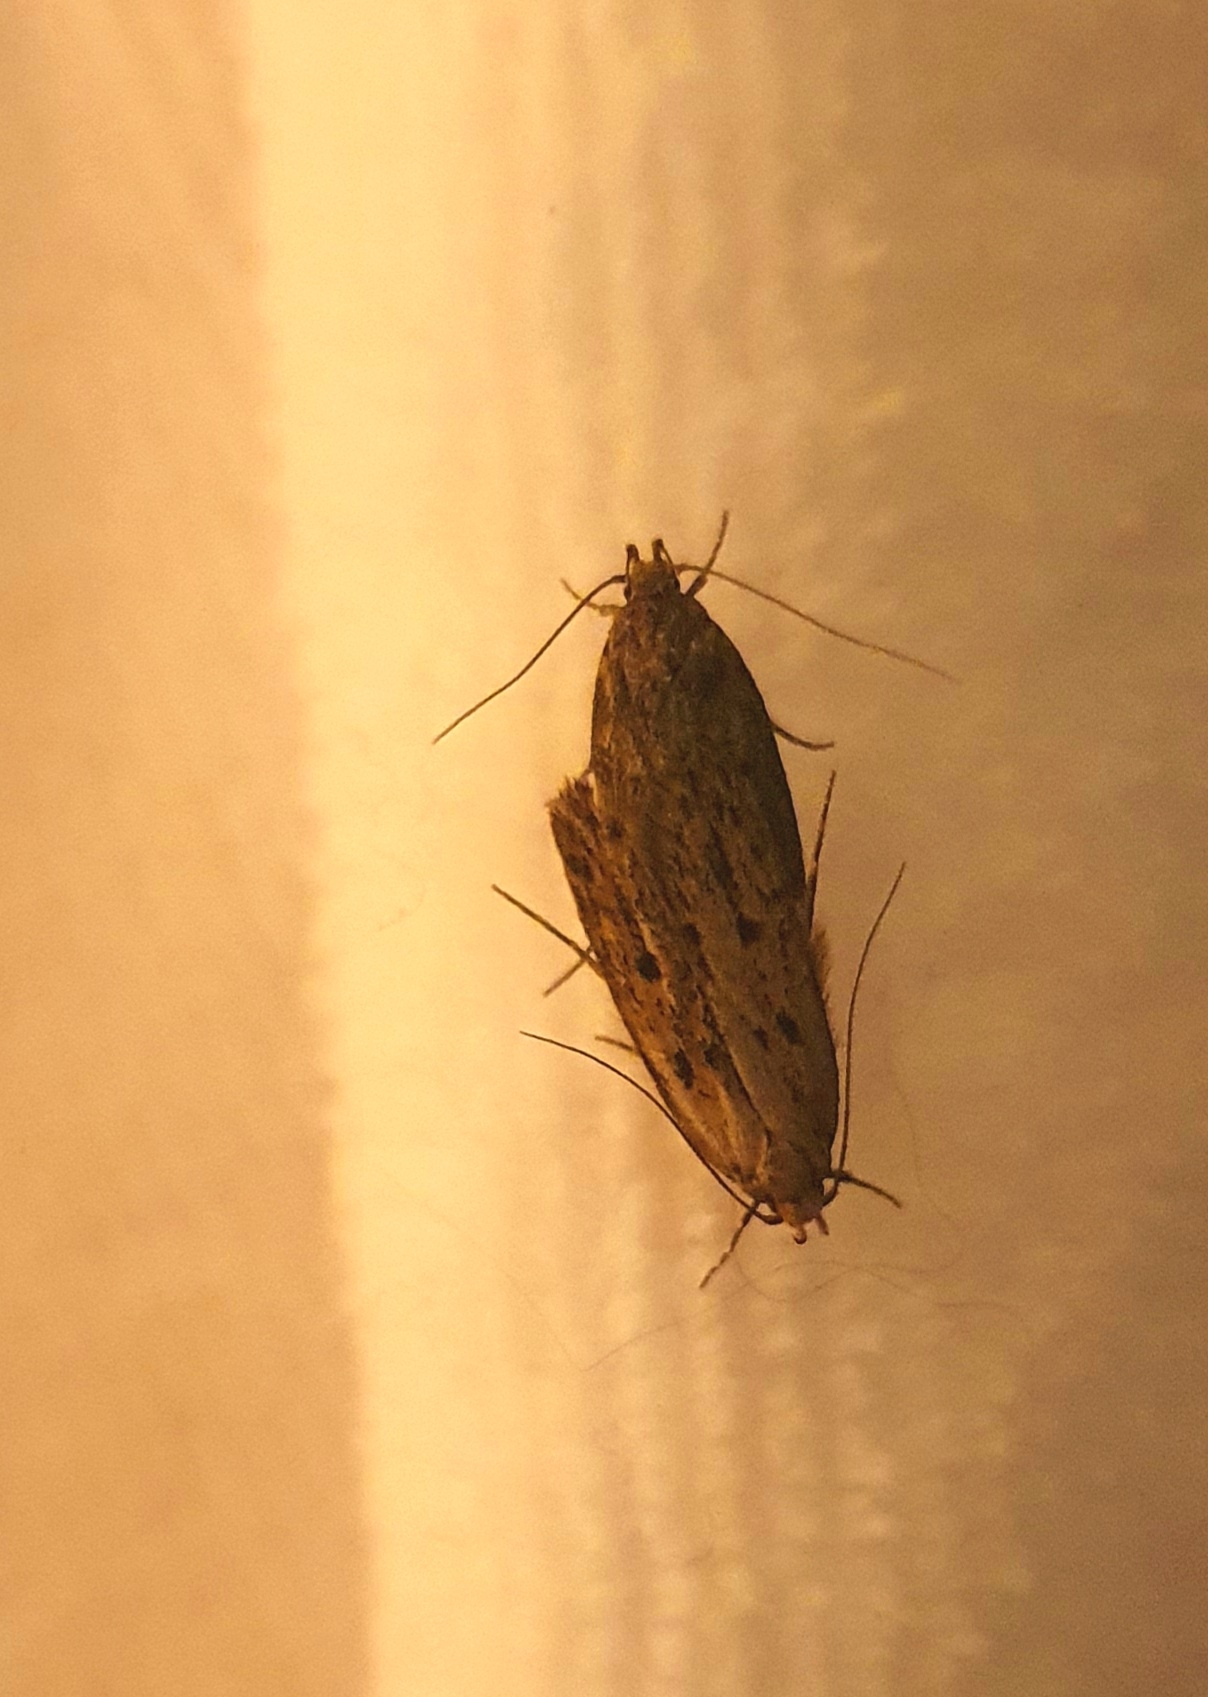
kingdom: Animalia
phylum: Arthropoda
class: Insecta
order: Lepidoptera
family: Oecophoridae
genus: Hofmannophila
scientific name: Hofmannophila pseudospretella
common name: Brown house moth
